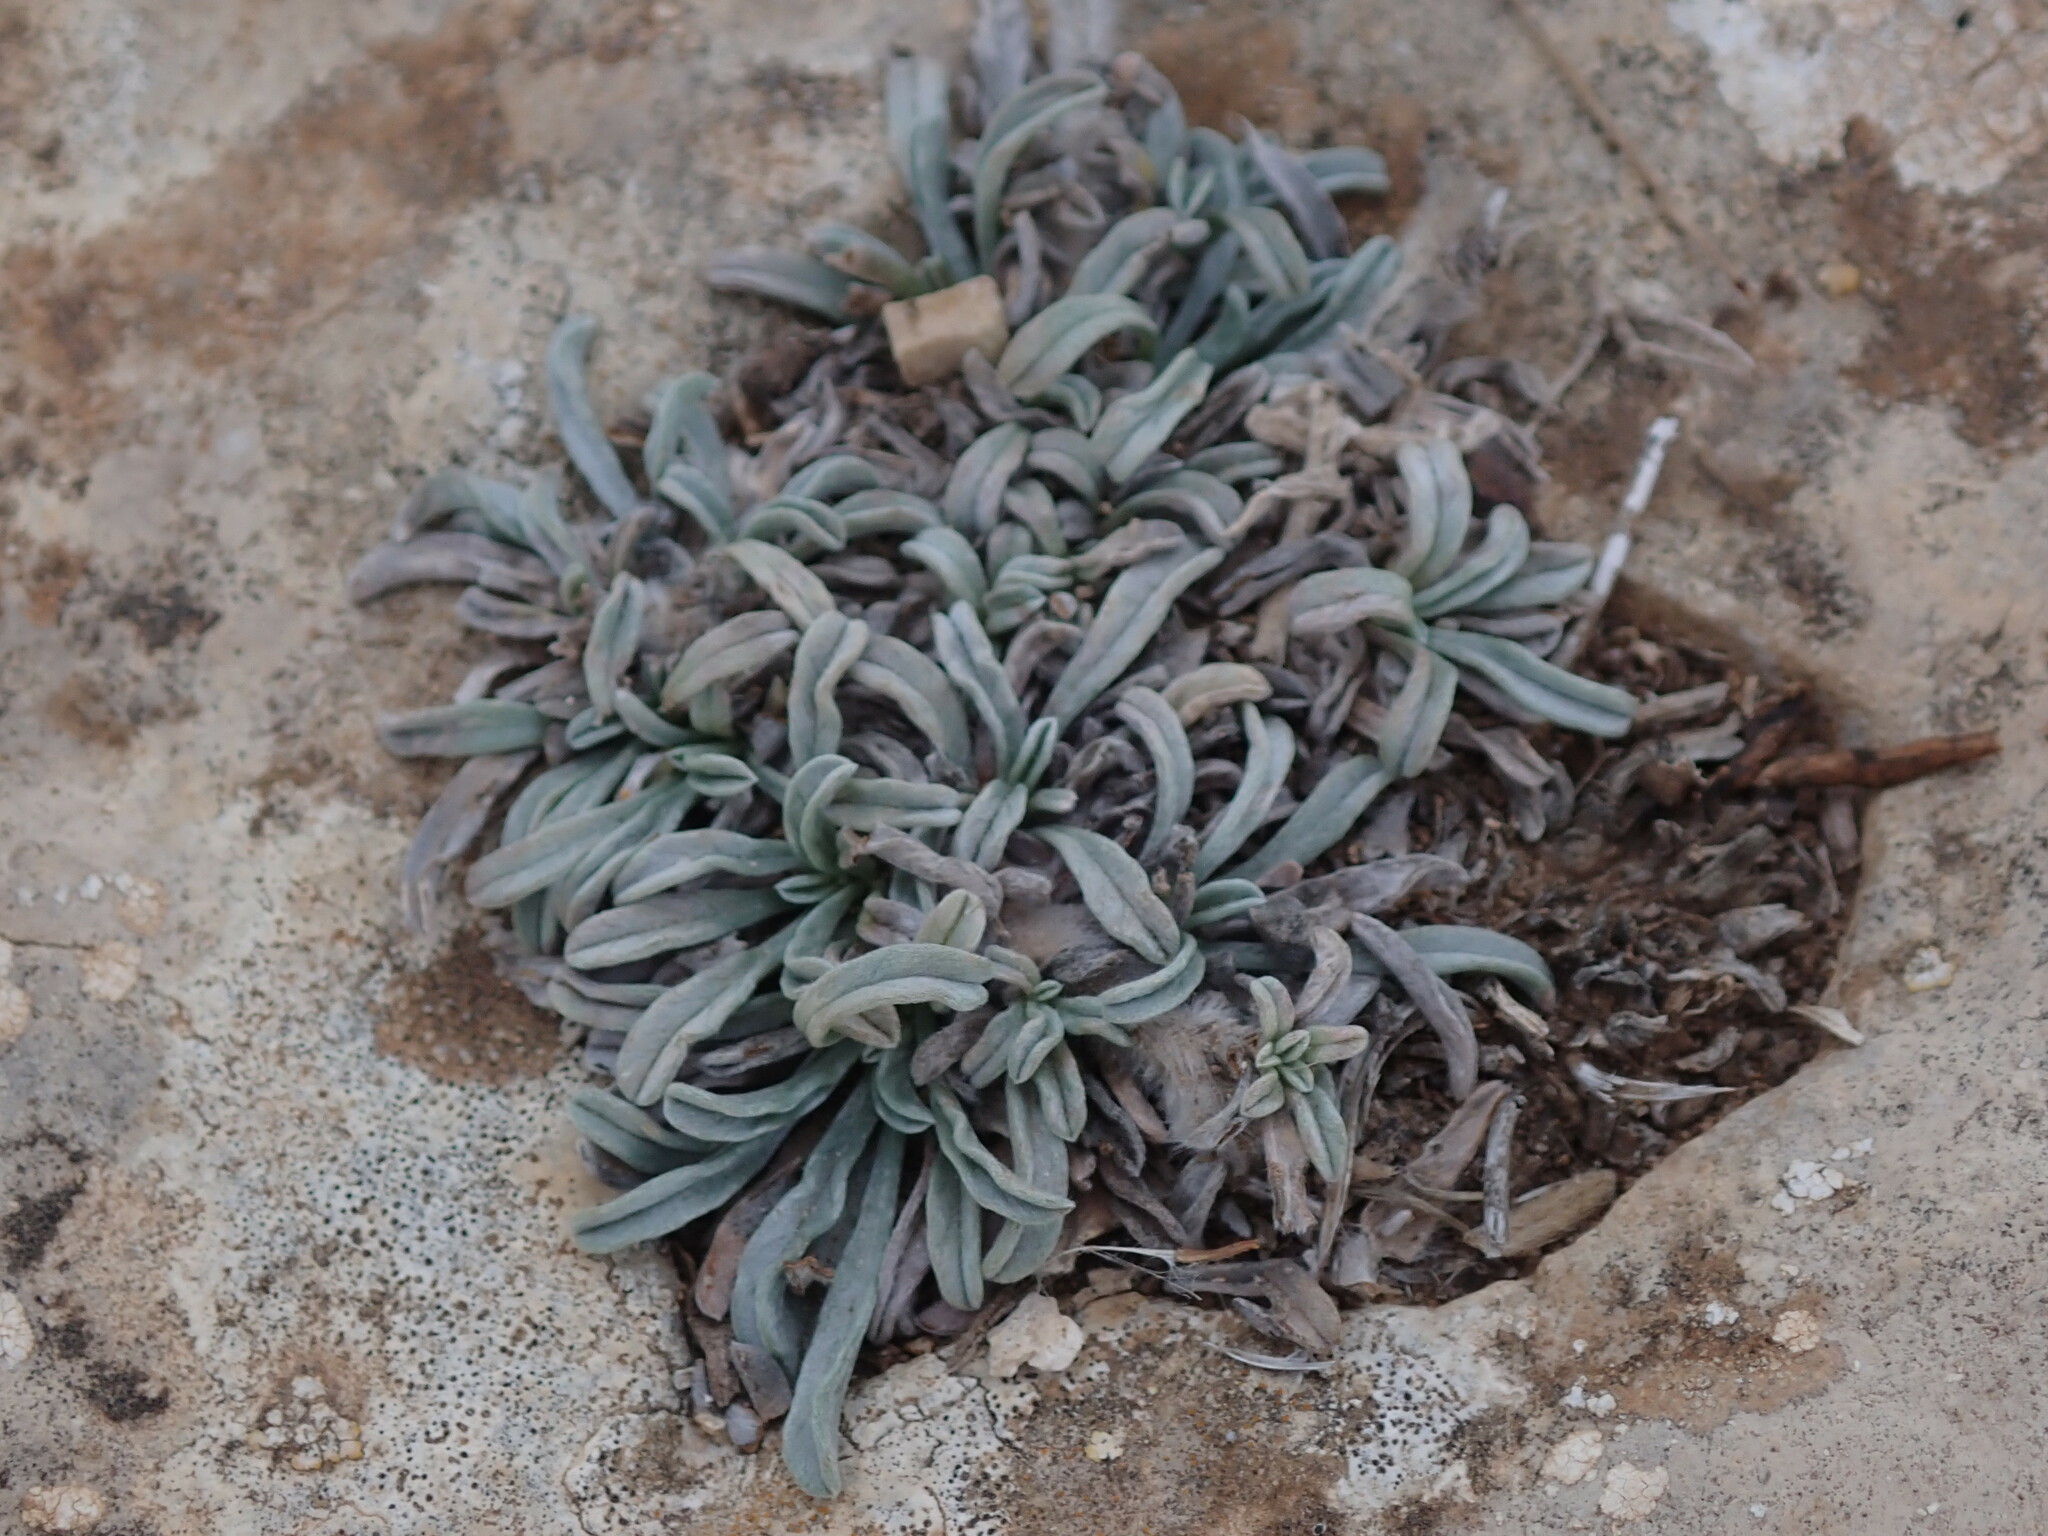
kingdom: Plantae
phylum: Tracheophyta
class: Magnoliopsida
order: Solanales
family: Convolvulaceae
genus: Convolvulus
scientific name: Convolvulus lineatus
